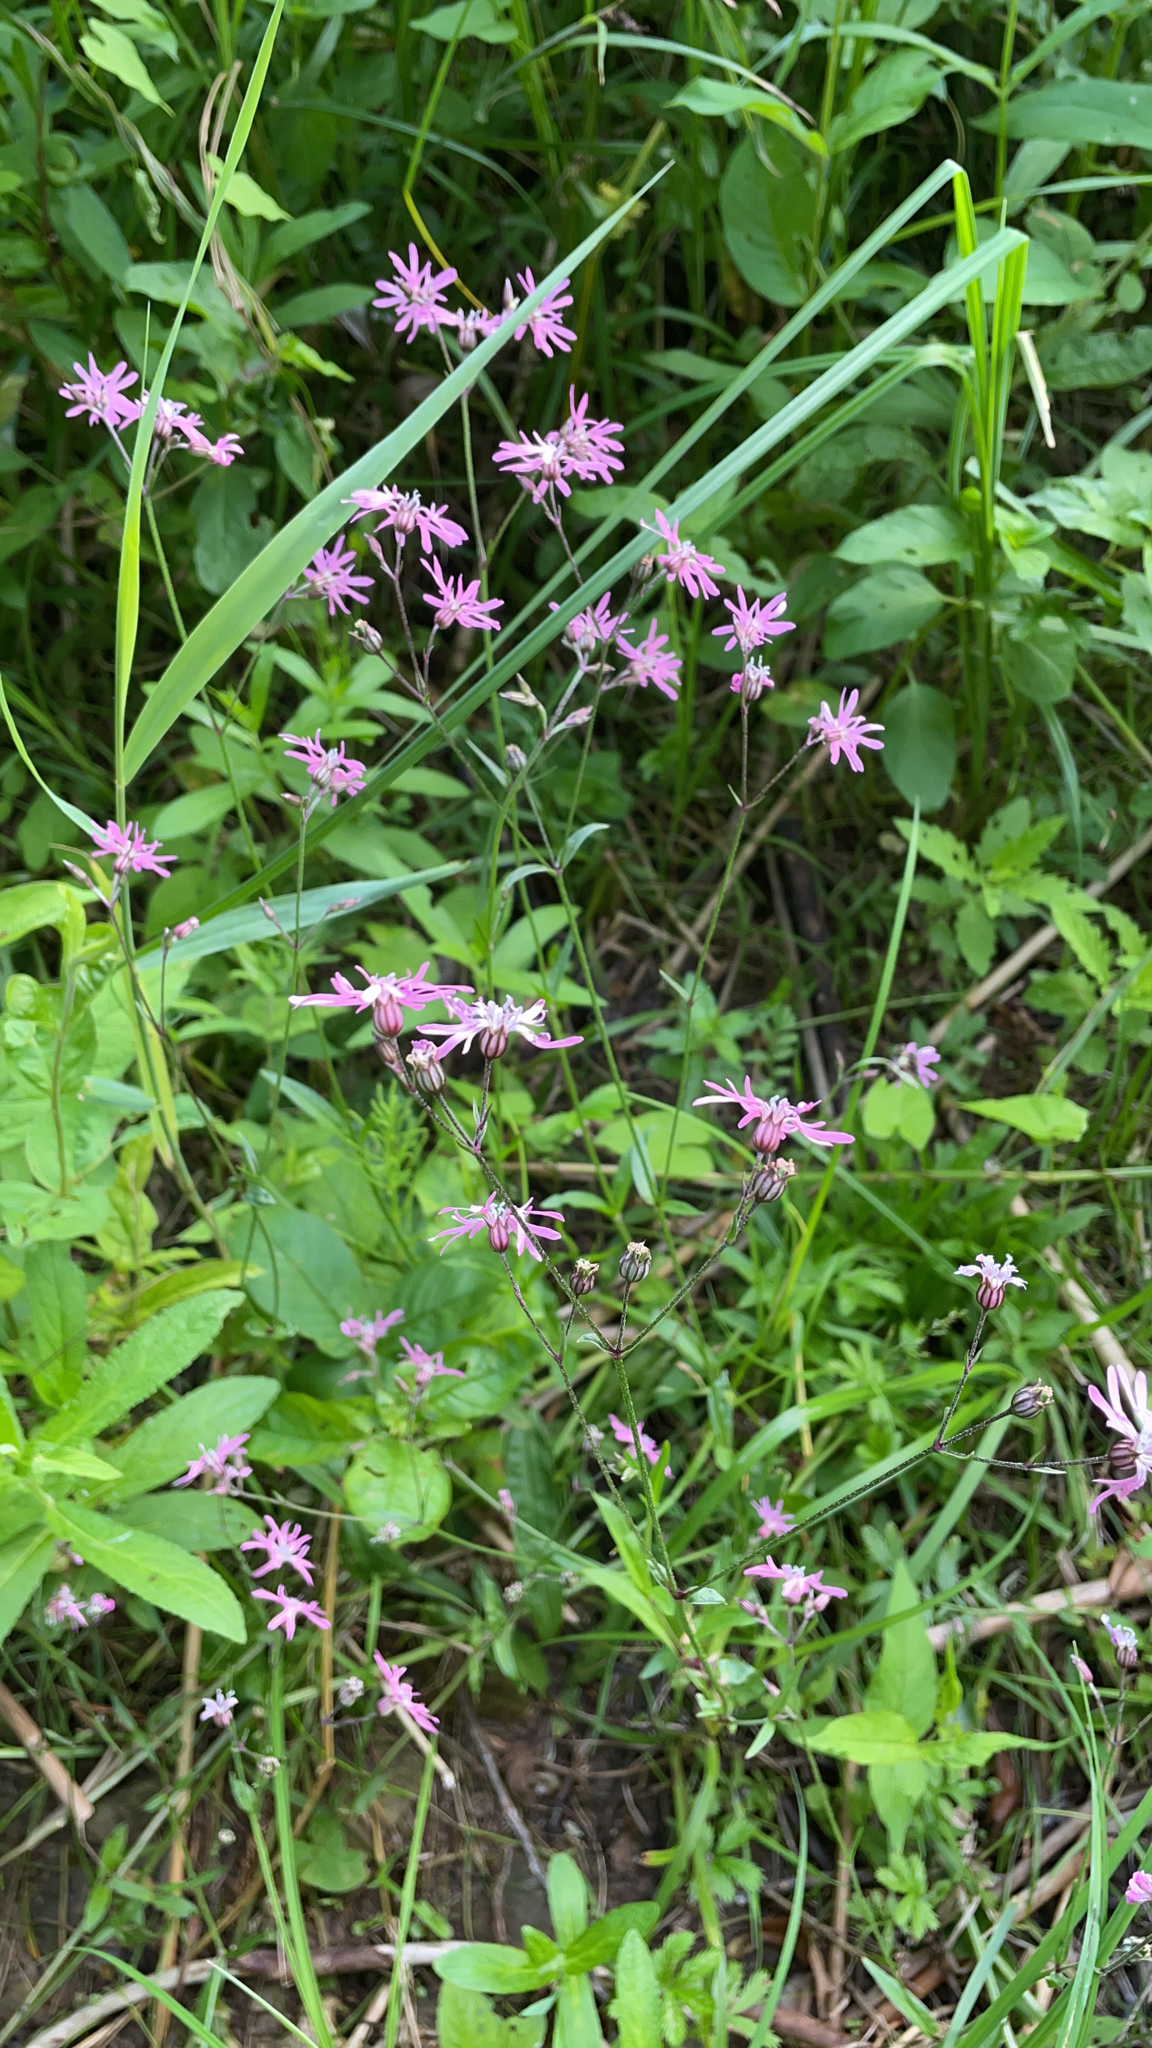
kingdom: Plantae
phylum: Tracheophyta
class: Magnoliopsida
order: Caryophyllales
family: Caryophyllaceae
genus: Silene
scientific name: Silene flos-cuculi
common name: Ragged-robin
